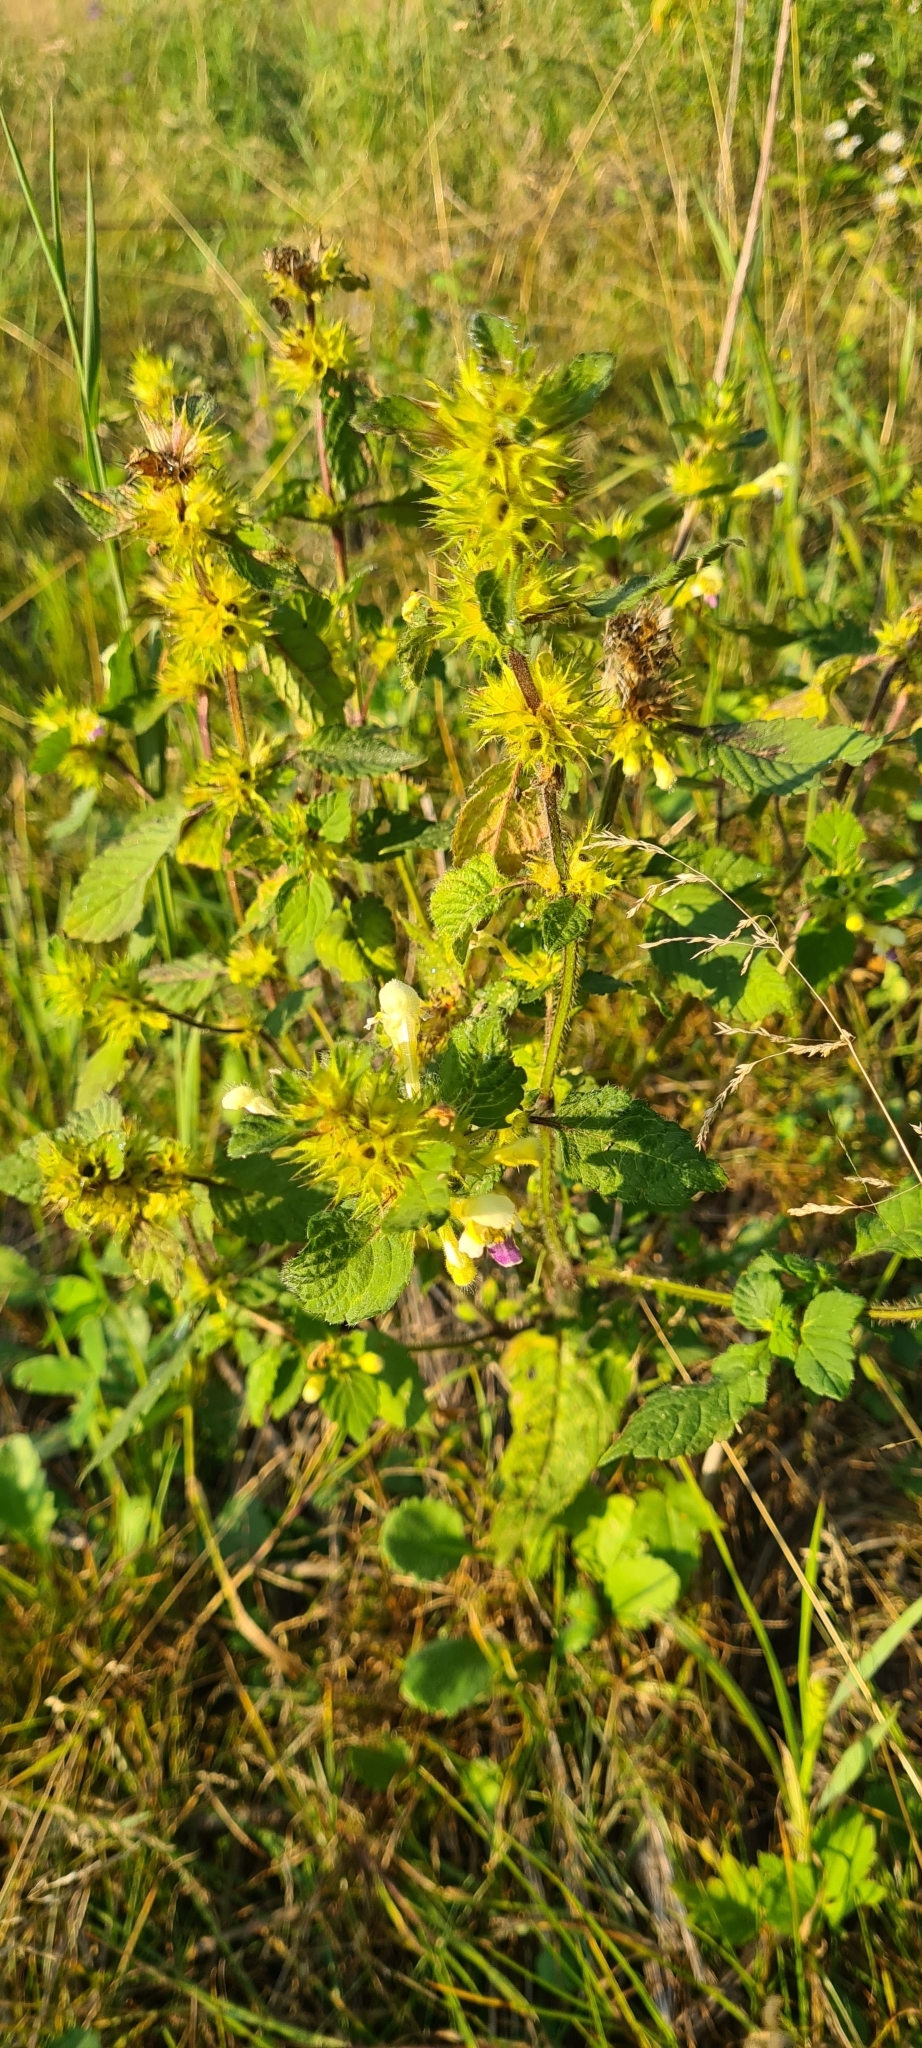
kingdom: Plantae
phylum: Tracheophyta
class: Magnoliopsida
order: Lamiales
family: Lamiaceae
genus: Galeopsis
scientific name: Galeopsis speciosa
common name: Large-flowered hemp-nettle
